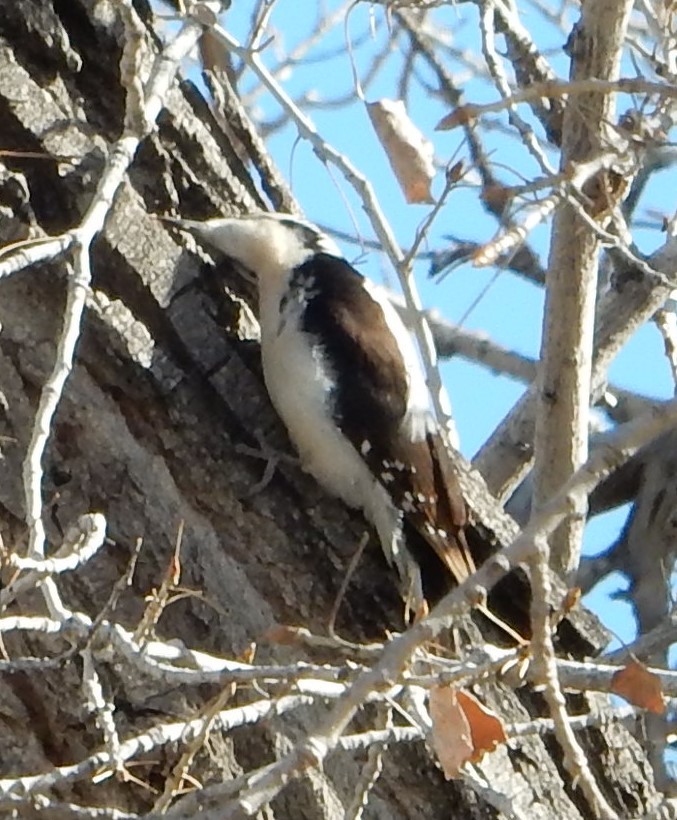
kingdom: Animalia
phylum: Chordata
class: Aves
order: Piciformes
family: Picidae
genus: Leuconotopicus
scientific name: Leuconotopicus villosus
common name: Hairy woodpecker
